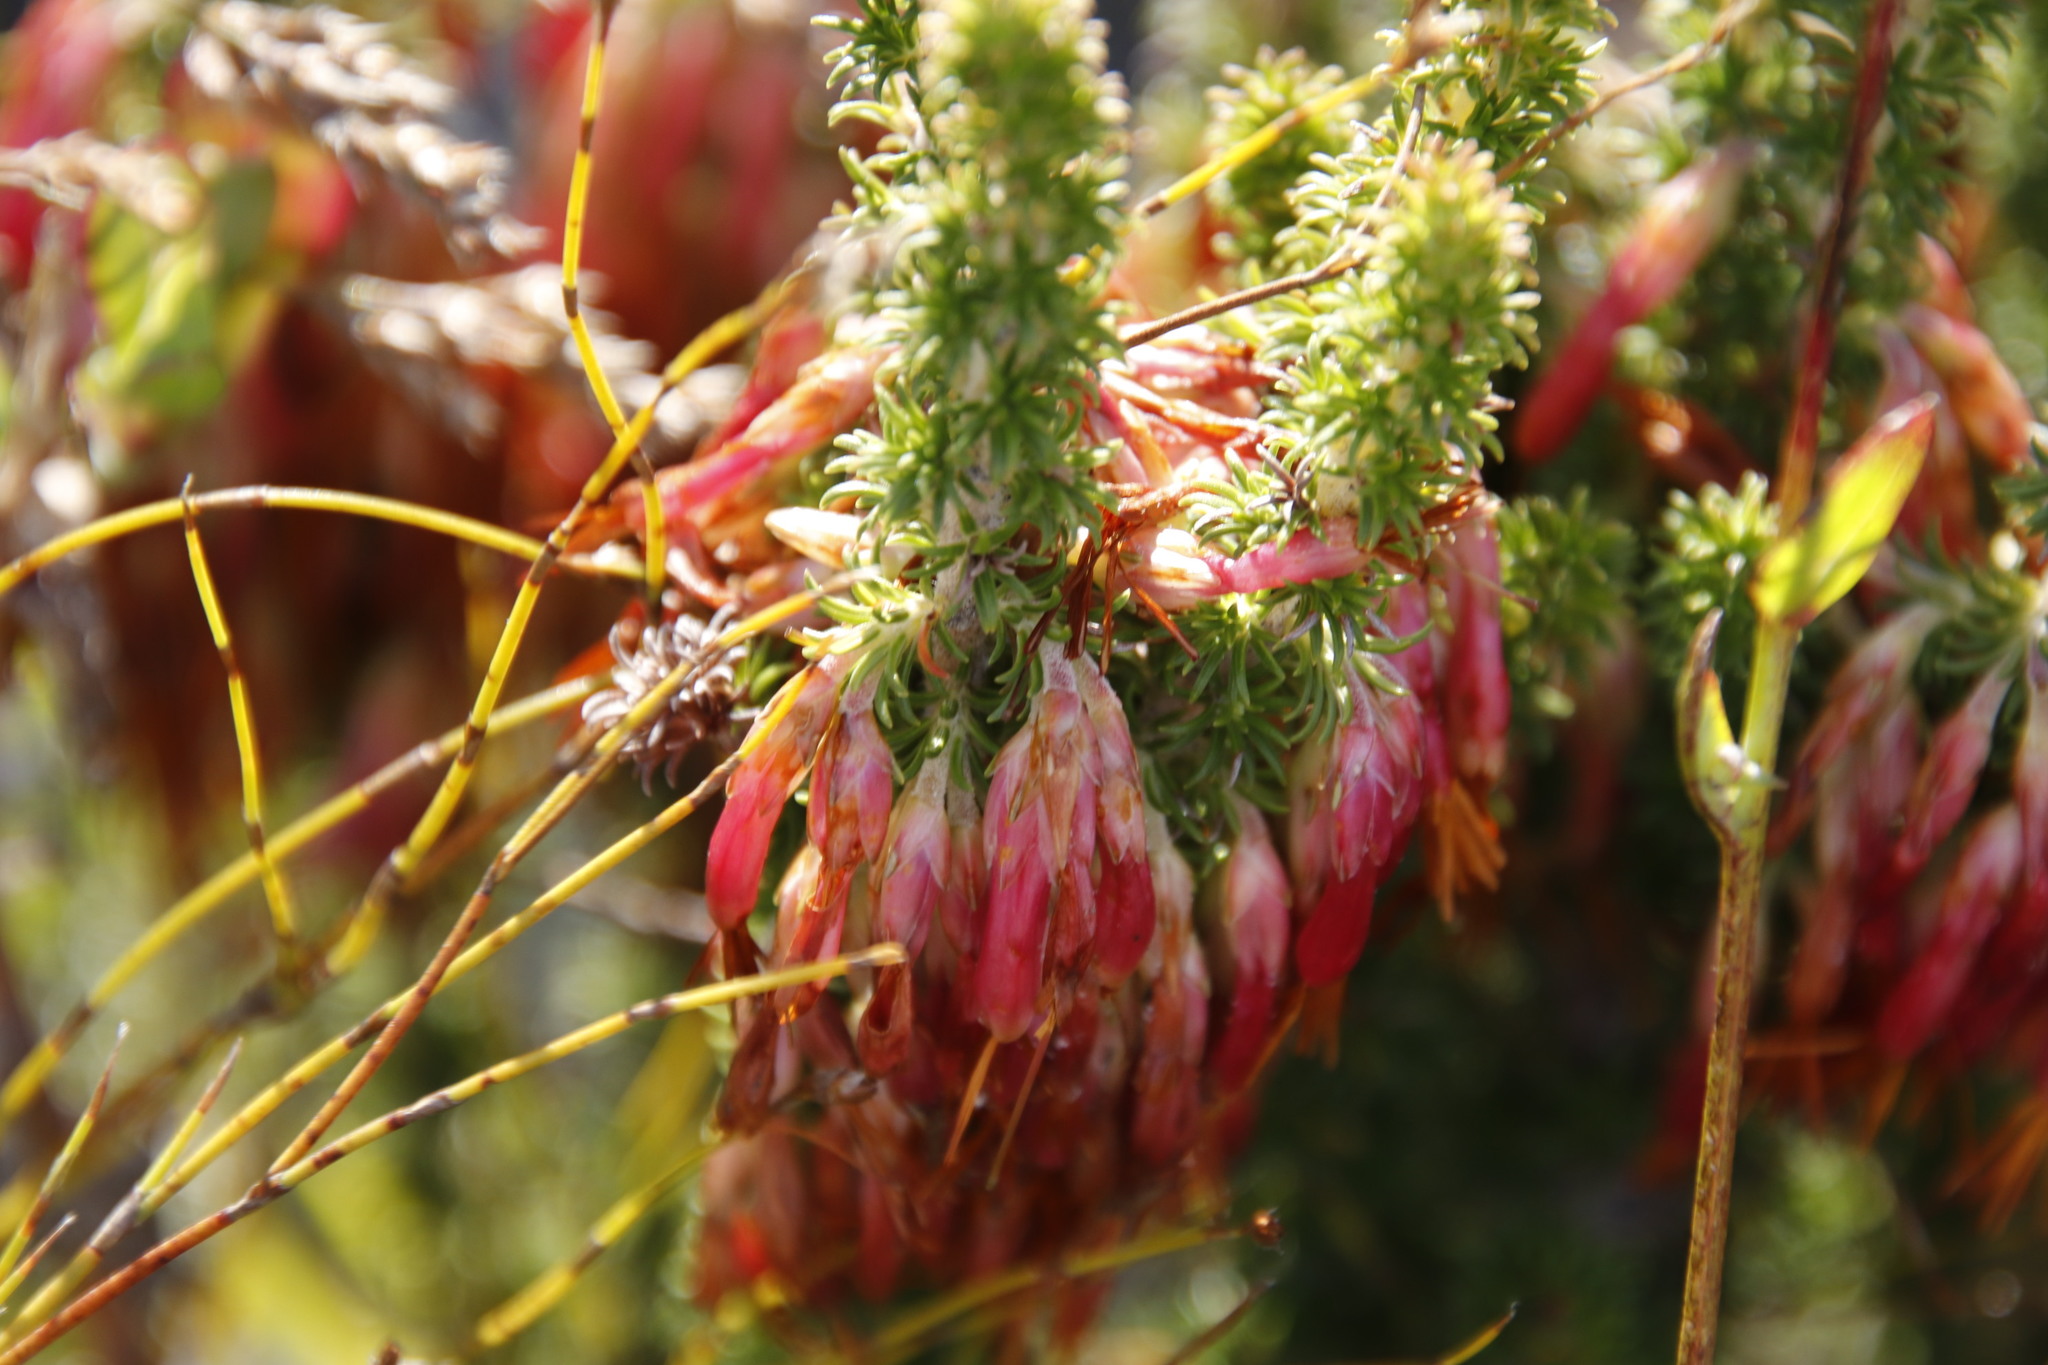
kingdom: Plantae
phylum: Tracheophyta
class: Magnoliopsida
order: Ericales
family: Ericaceae
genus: Erica
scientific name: Erica coccinea
